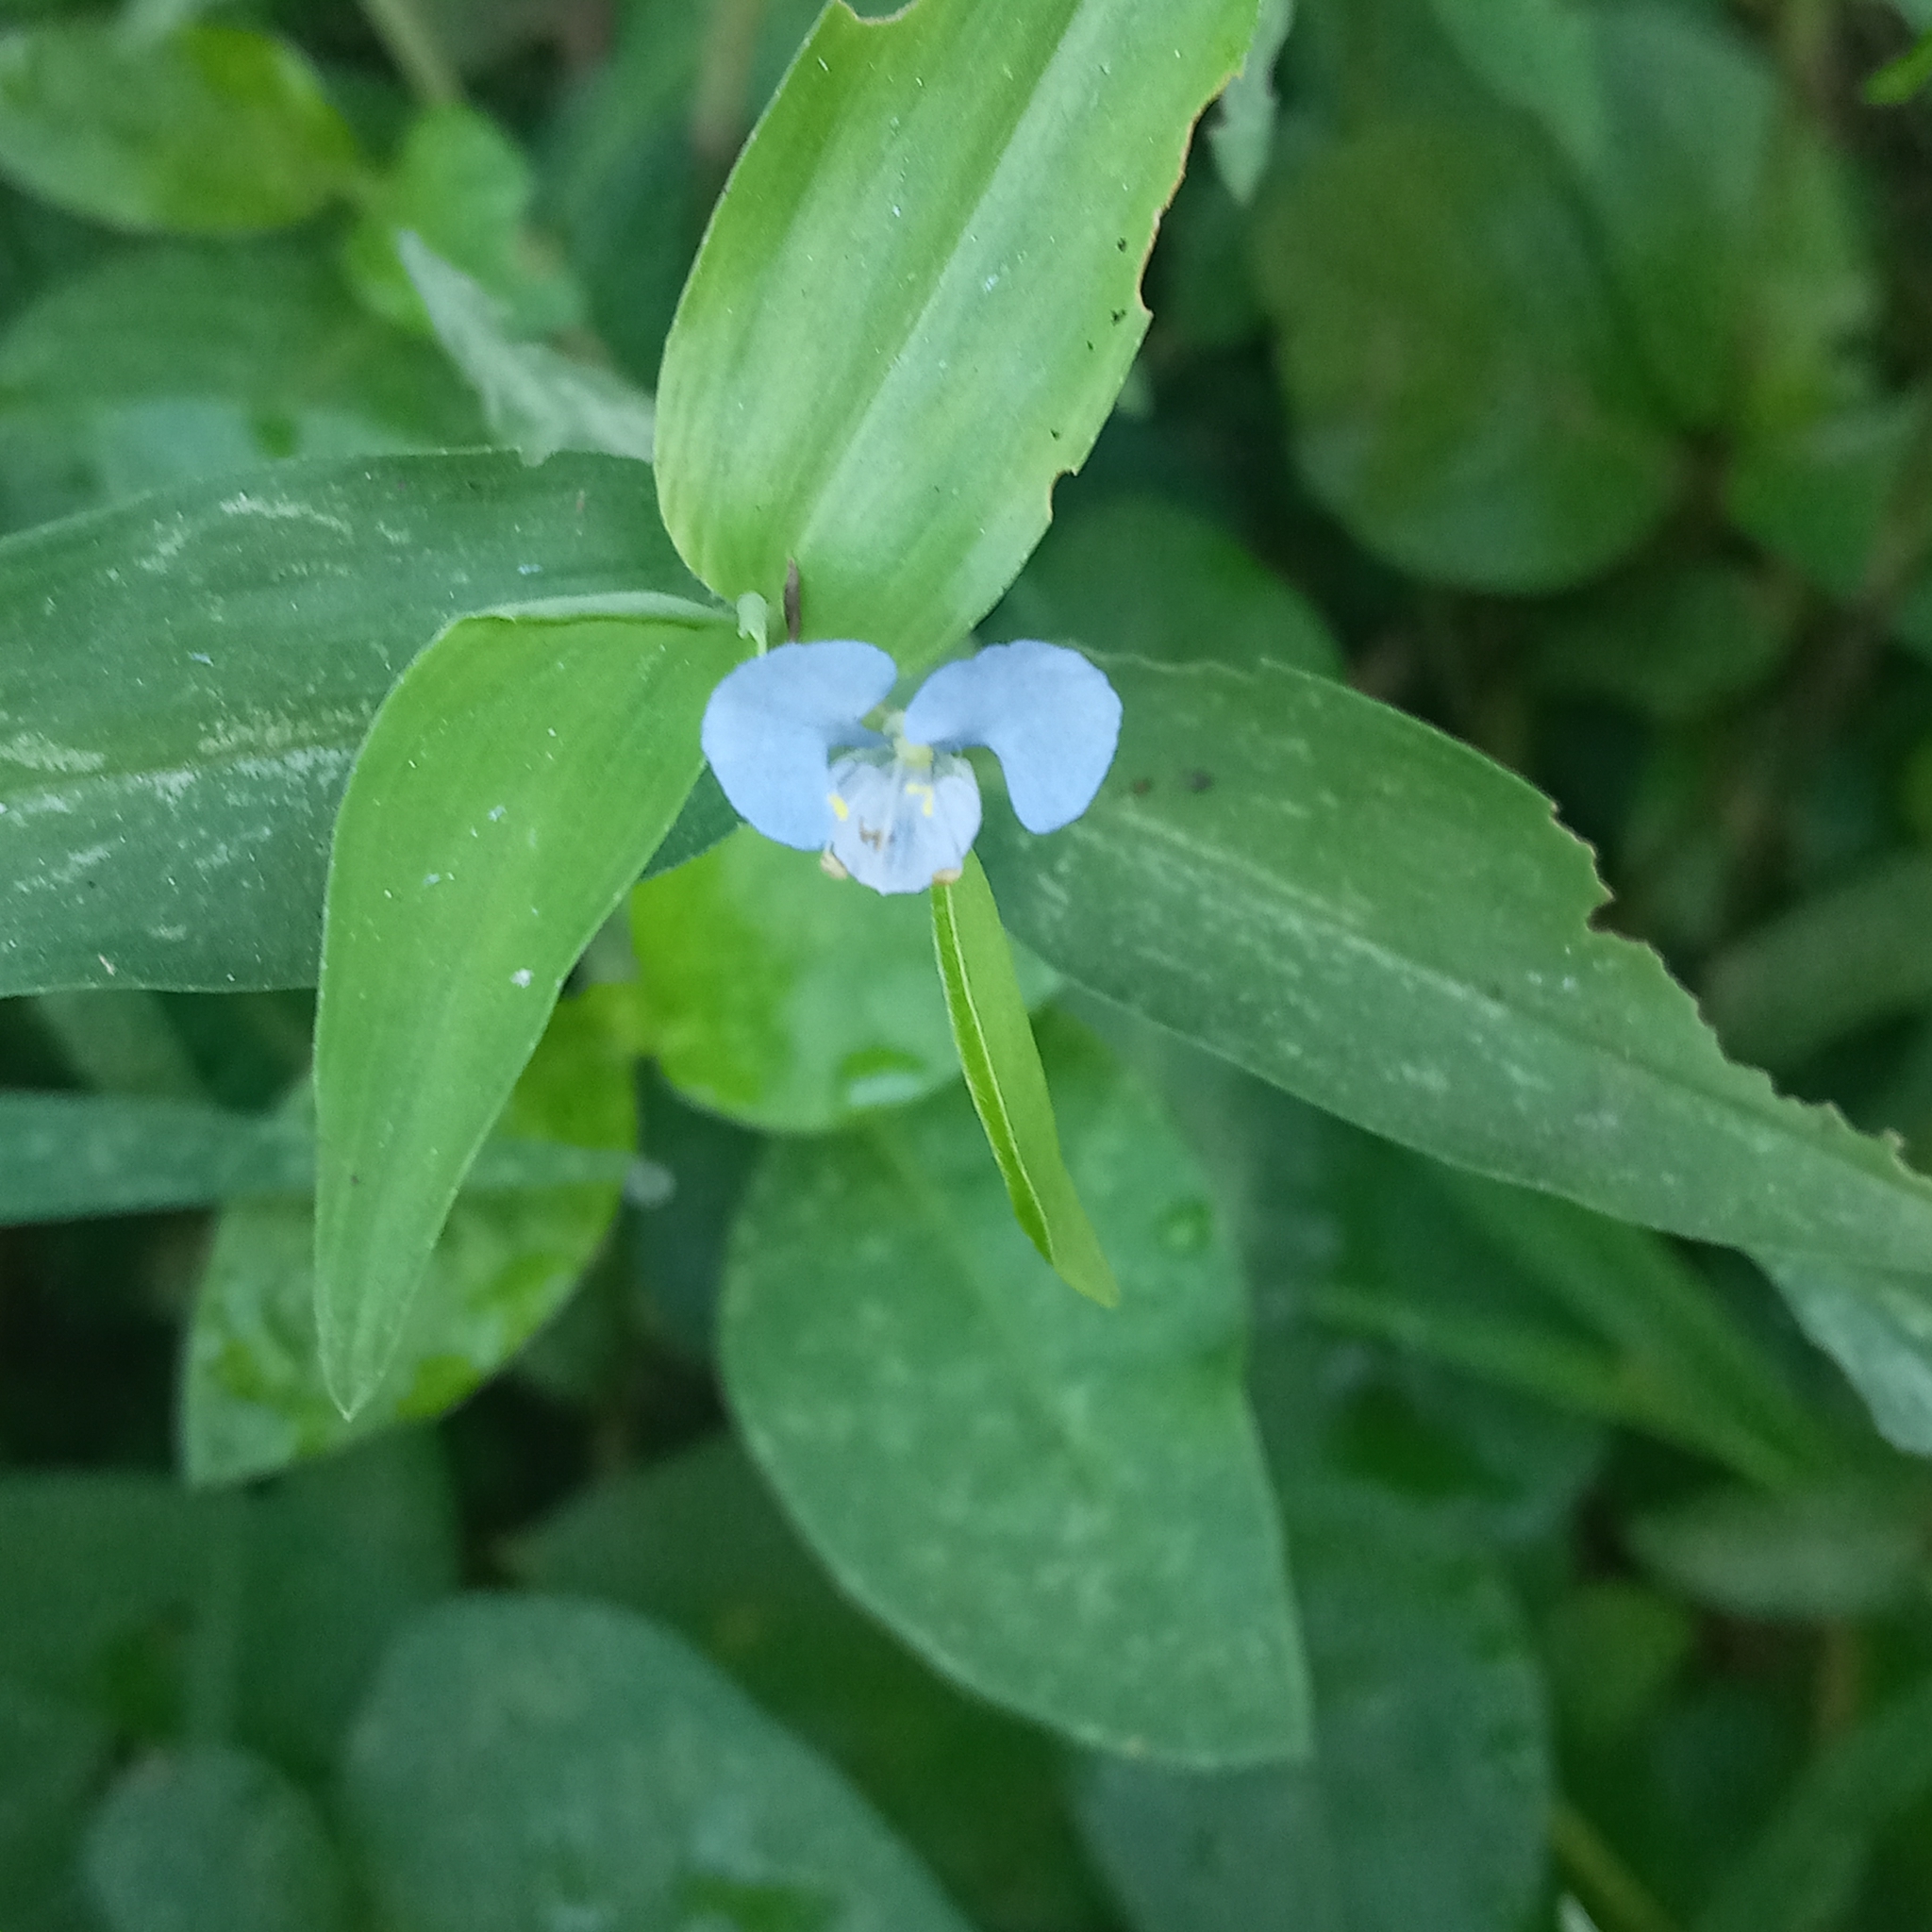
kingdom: Plantae
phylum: Tracheophyta
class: Liliopsida
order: Commelinales
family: Commelinaceae
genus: Commelina
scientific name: Commelina diffusa
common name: Climbing dayflower
